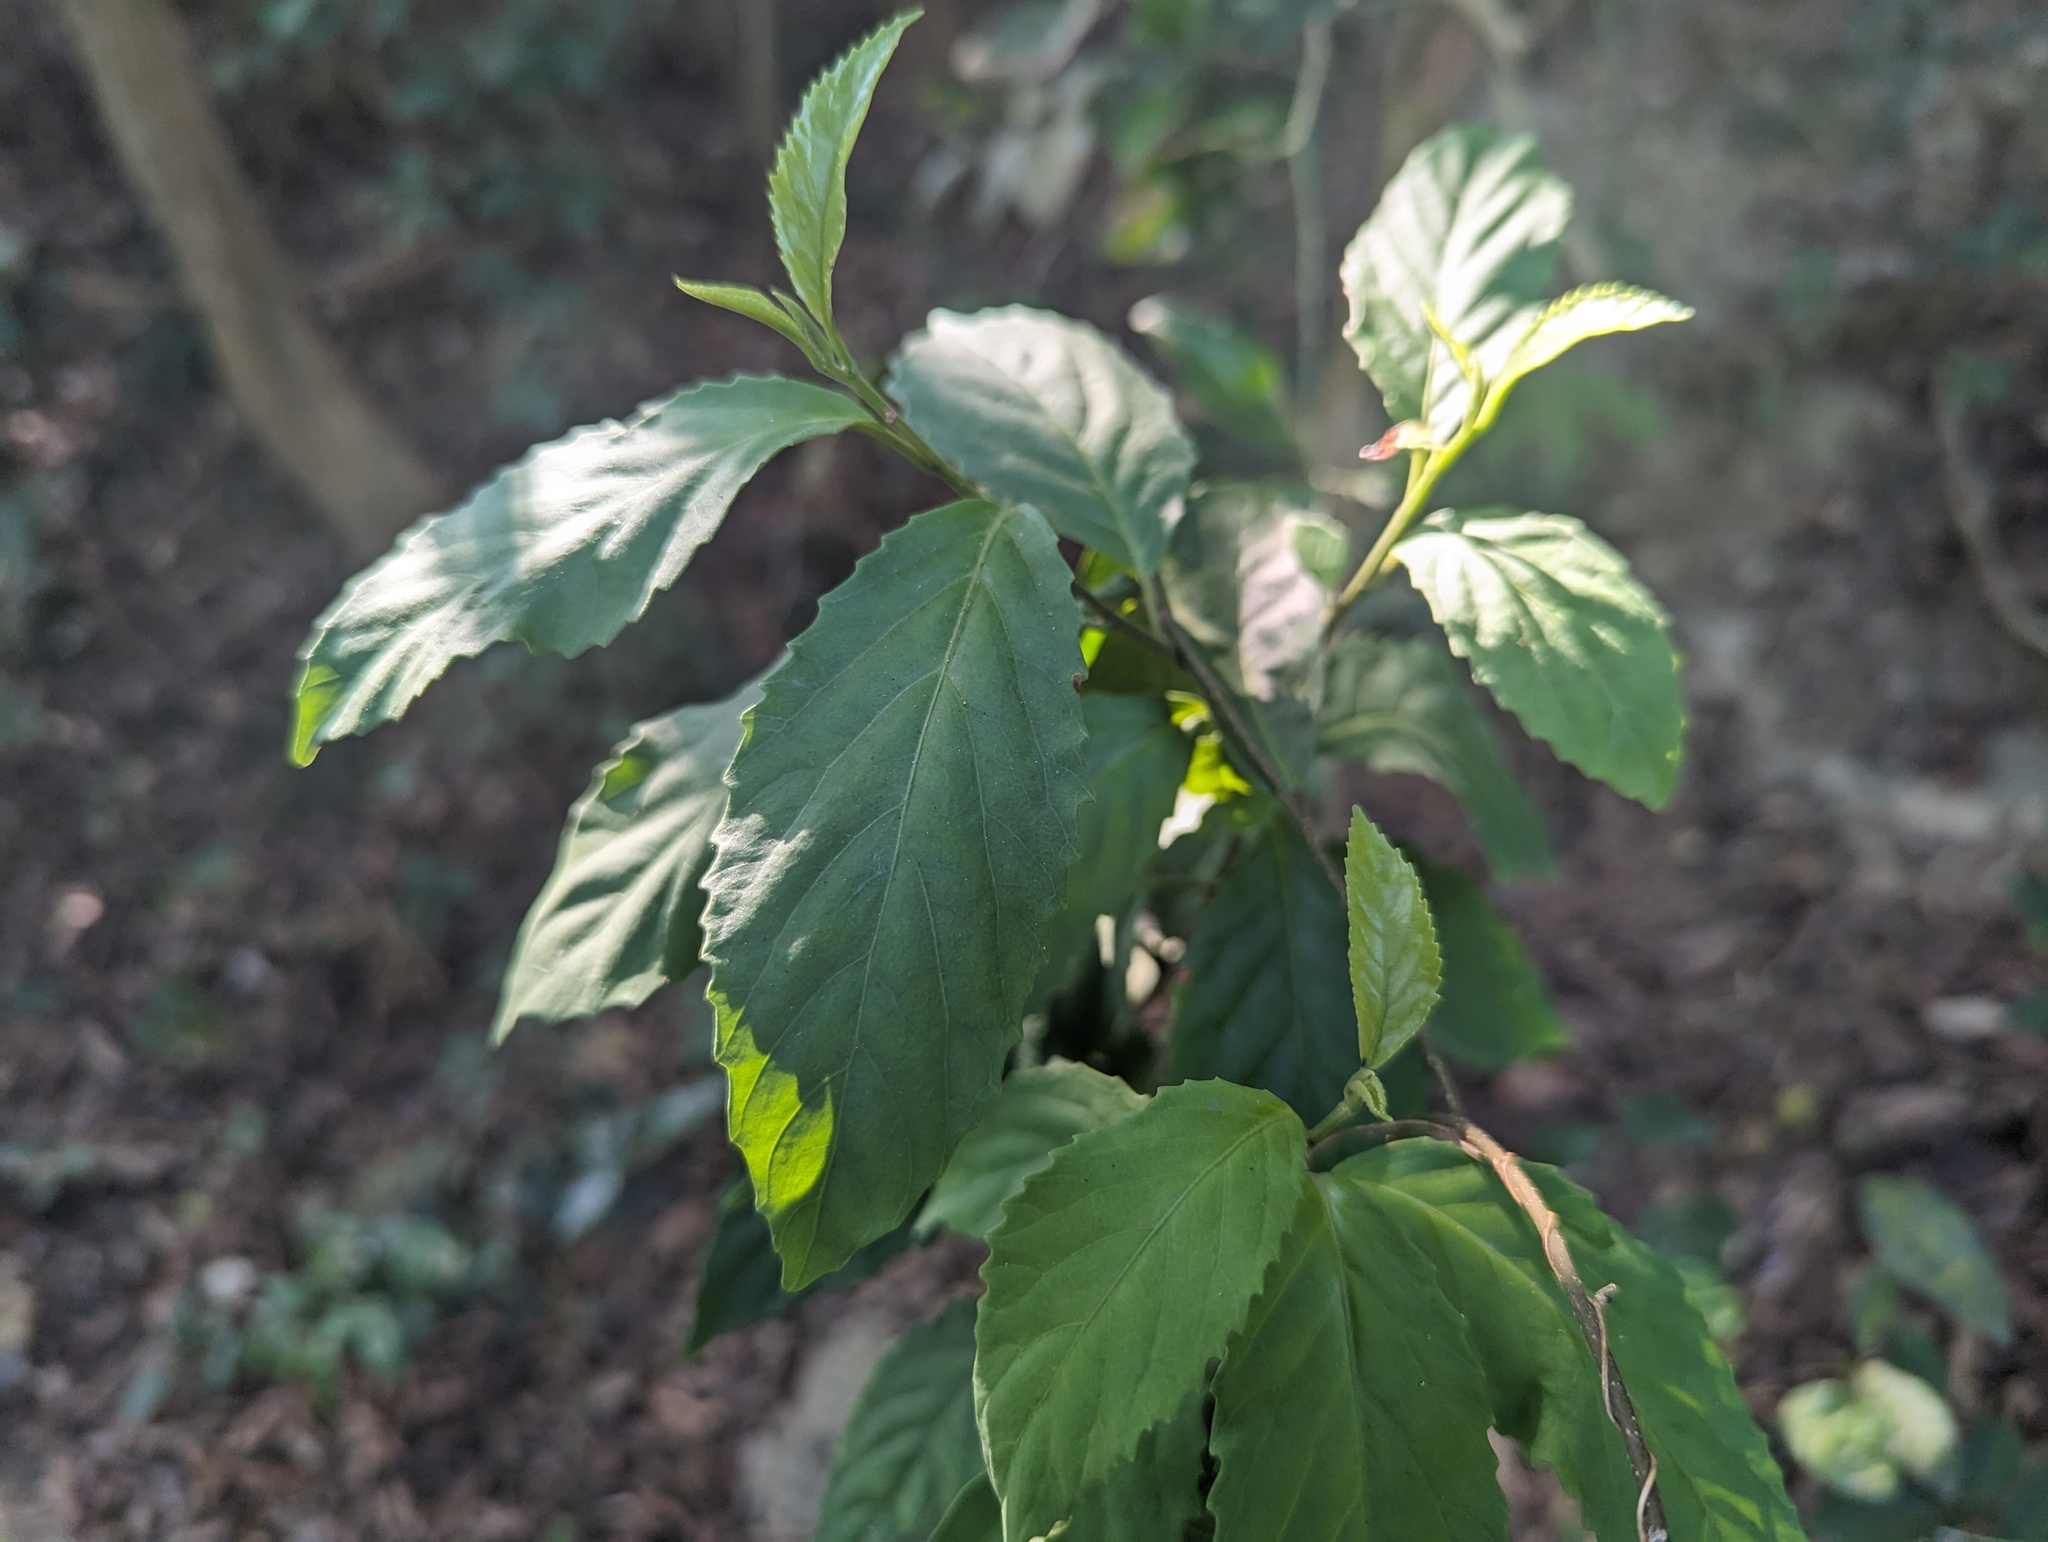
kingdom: Plantae
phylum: Tracheophyta
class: Magnoliopsida
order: Ericales
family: Primulaceae
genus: Maesa
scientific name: Maesa perlaria
